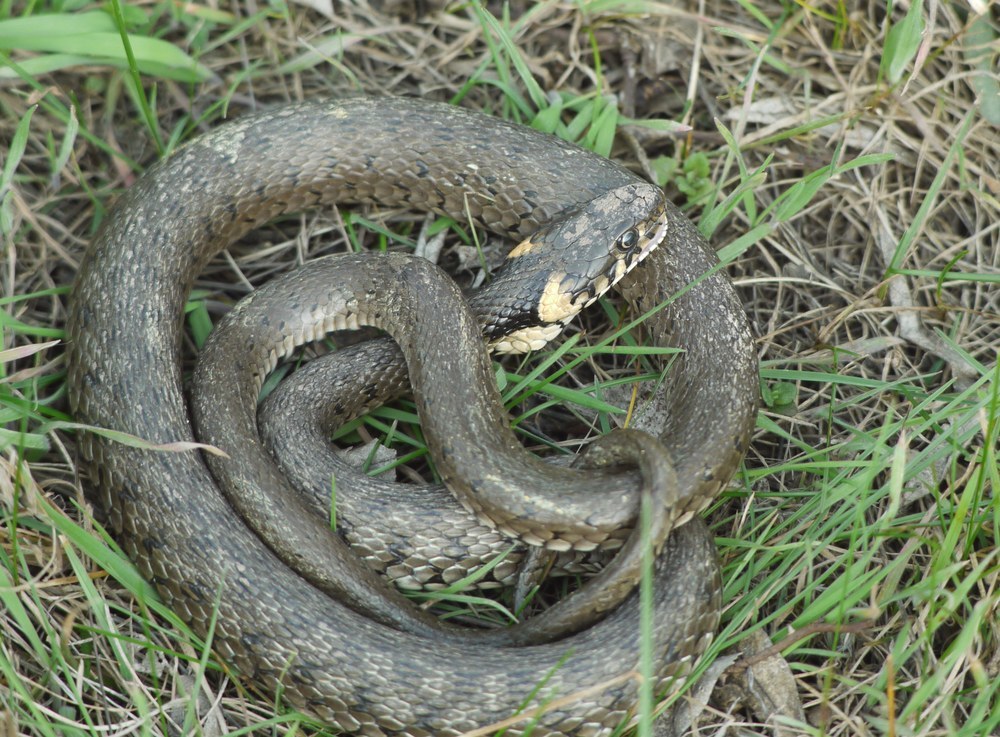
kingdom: Animalia
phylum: Chordata
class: Squamata
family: Colubridae
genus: Natrix
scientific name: Natrix natrix
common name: Grass snake
